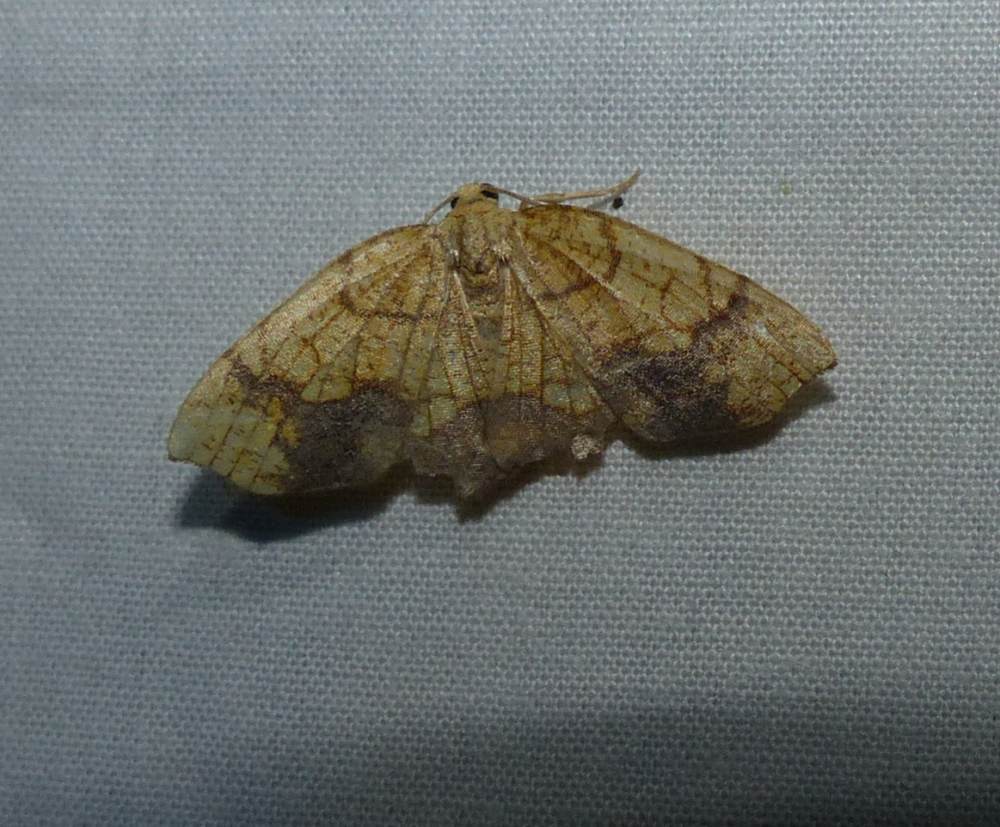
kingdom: Animalia
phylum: Arthropoda
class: Insecta
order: Lepidoptera
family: Geometridae
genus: Nematocampa
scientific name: Nematocampa resistaria
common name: Horned spanworm moth
